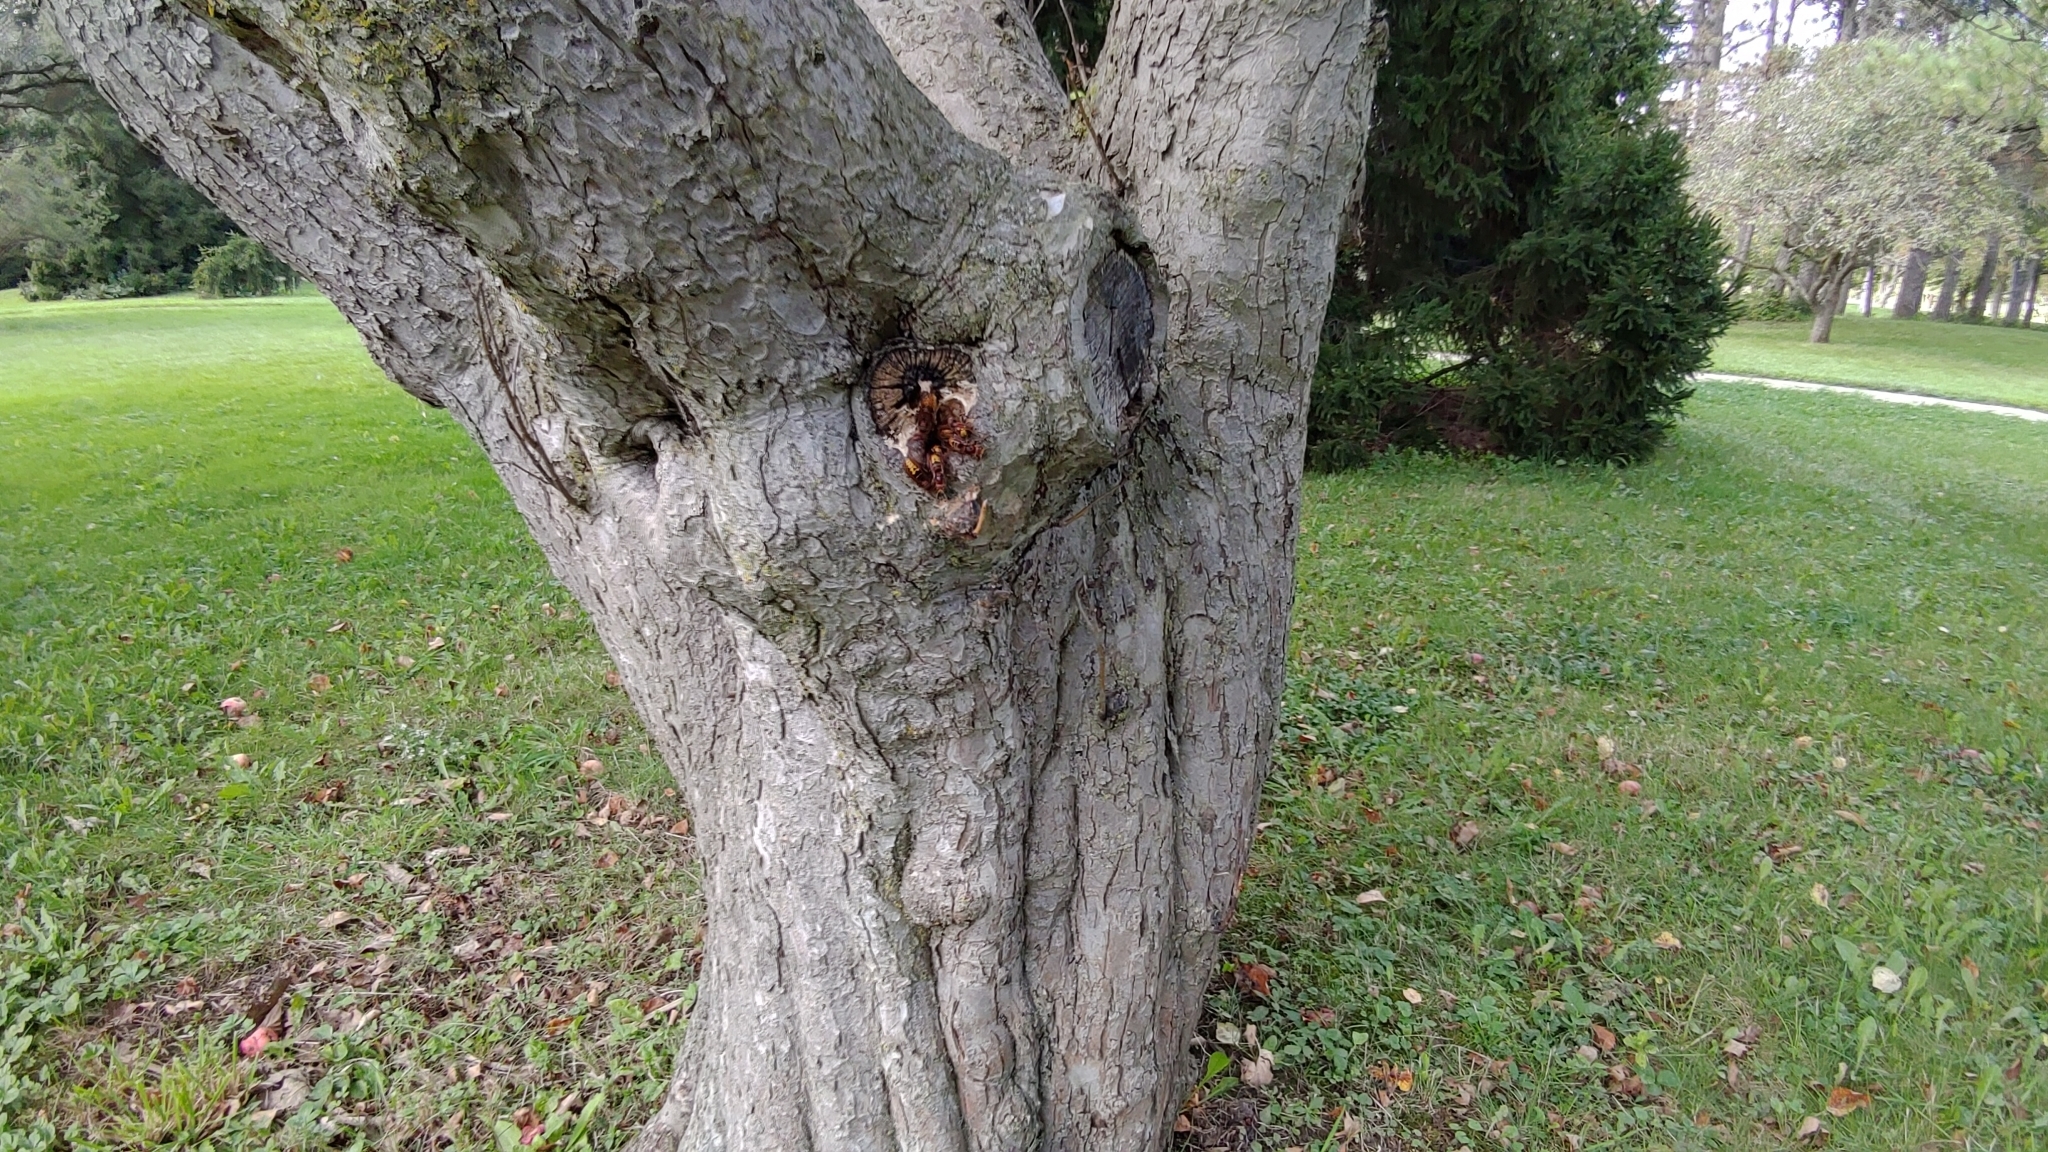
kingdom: Animalia
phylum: Arthropoda
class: Insecta
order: Hymenoptera
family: Vespidae
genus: Vespa
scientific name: Vespa crabro
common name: Hornet
